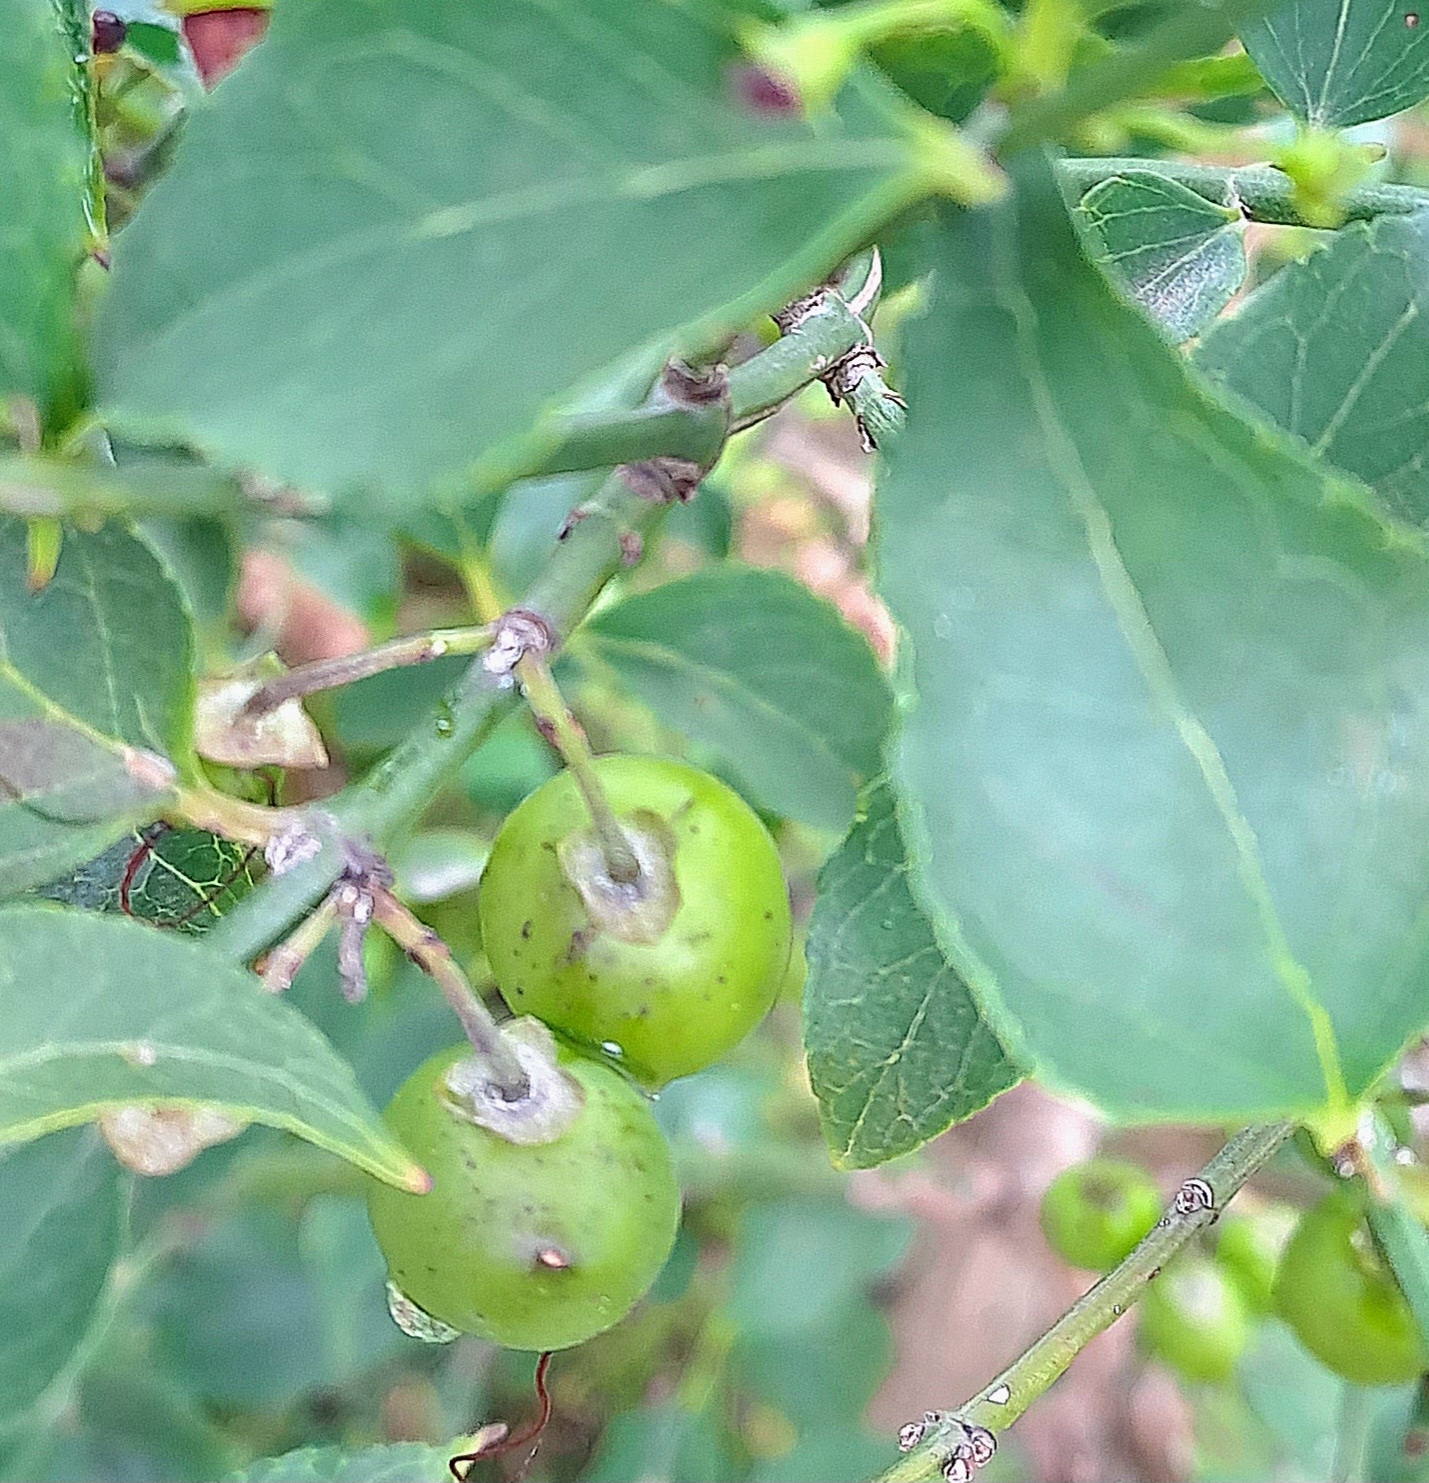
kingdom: Plantae
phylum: Tracheophyta
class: Magnoliopsida
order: Lamiales
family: Stilbaceae
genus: Halleria
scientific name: Halleria lucida
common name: Tree fuschia
